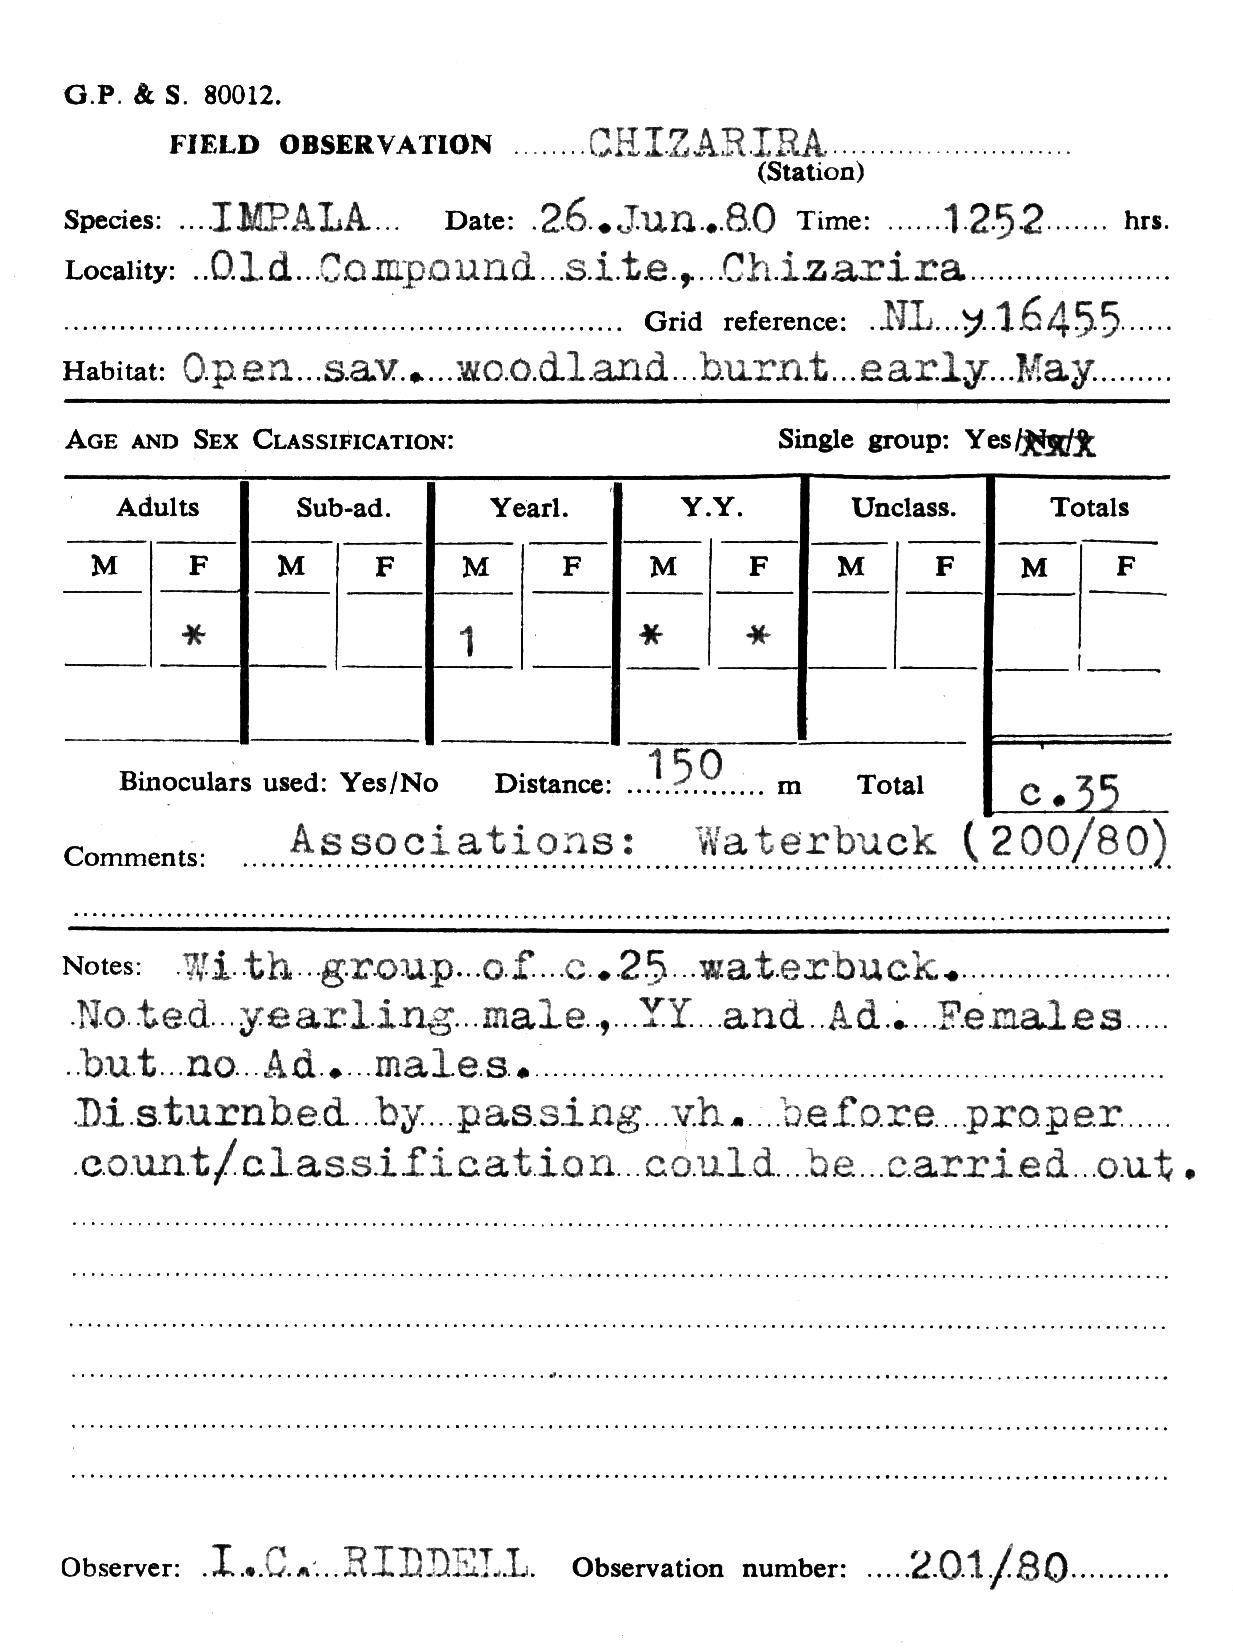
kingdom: Animalia
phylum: Chordata
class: Mammalia
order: Artiodactyla
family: Bovidae
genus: Aepyceros
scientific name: Aepyceros melampus
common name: Impala
